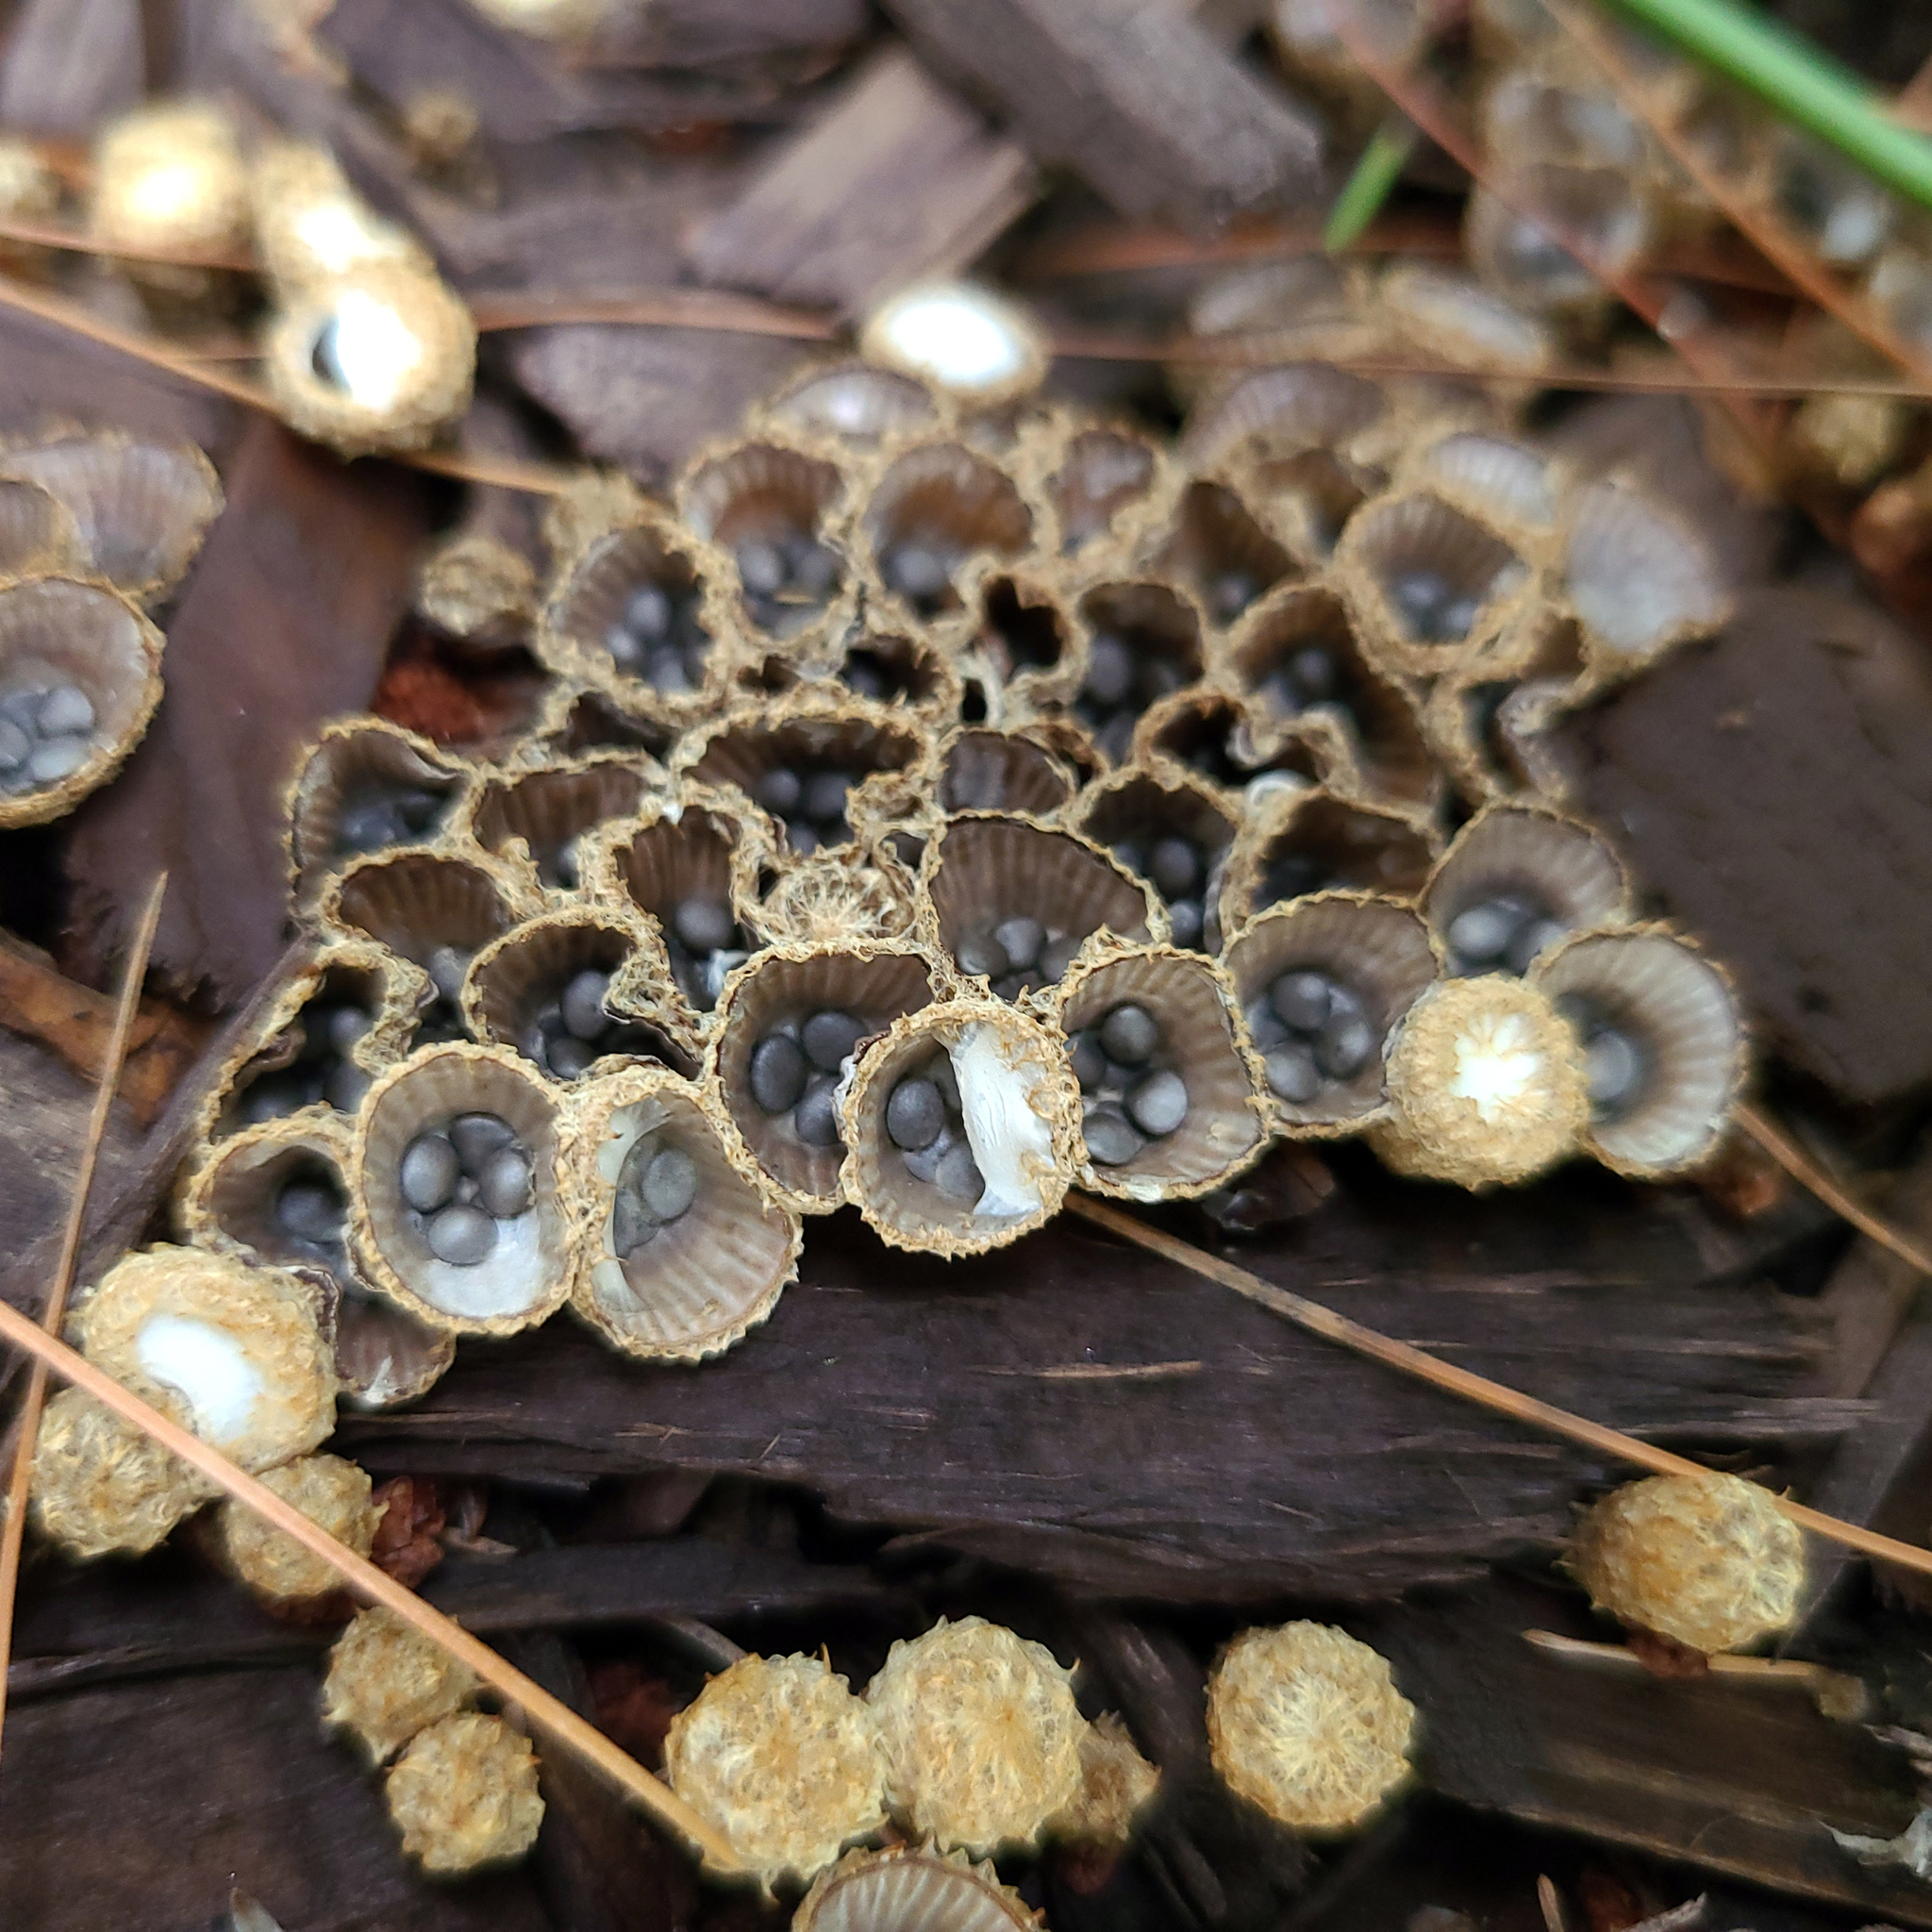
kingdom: Fungi
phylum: Basidiomycota
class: Agaricomycetes
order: Agaricales
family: Agaricaceae
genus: Cyathus
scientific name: Cyathus striatus
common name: Fluted bird's nest
